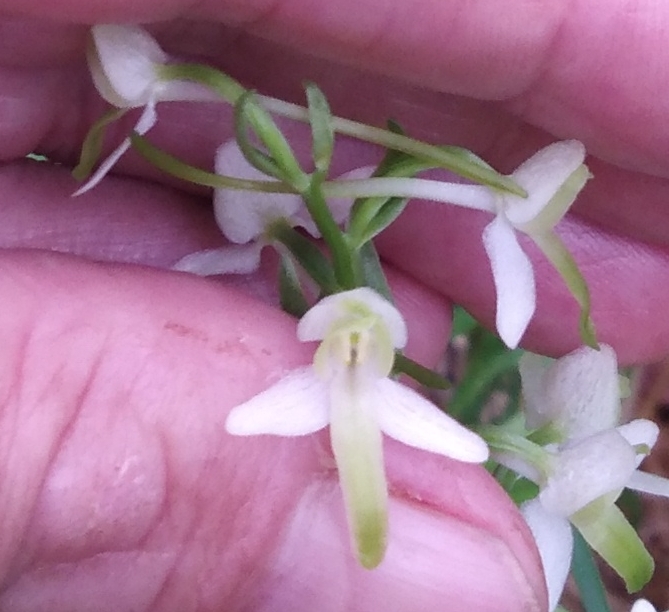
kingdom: Plantae
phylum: Tracheophyta
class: Liliopsida
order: Asparagales
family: Orchidaceae
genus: Platanthera
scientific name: Platanthera metabifolia
